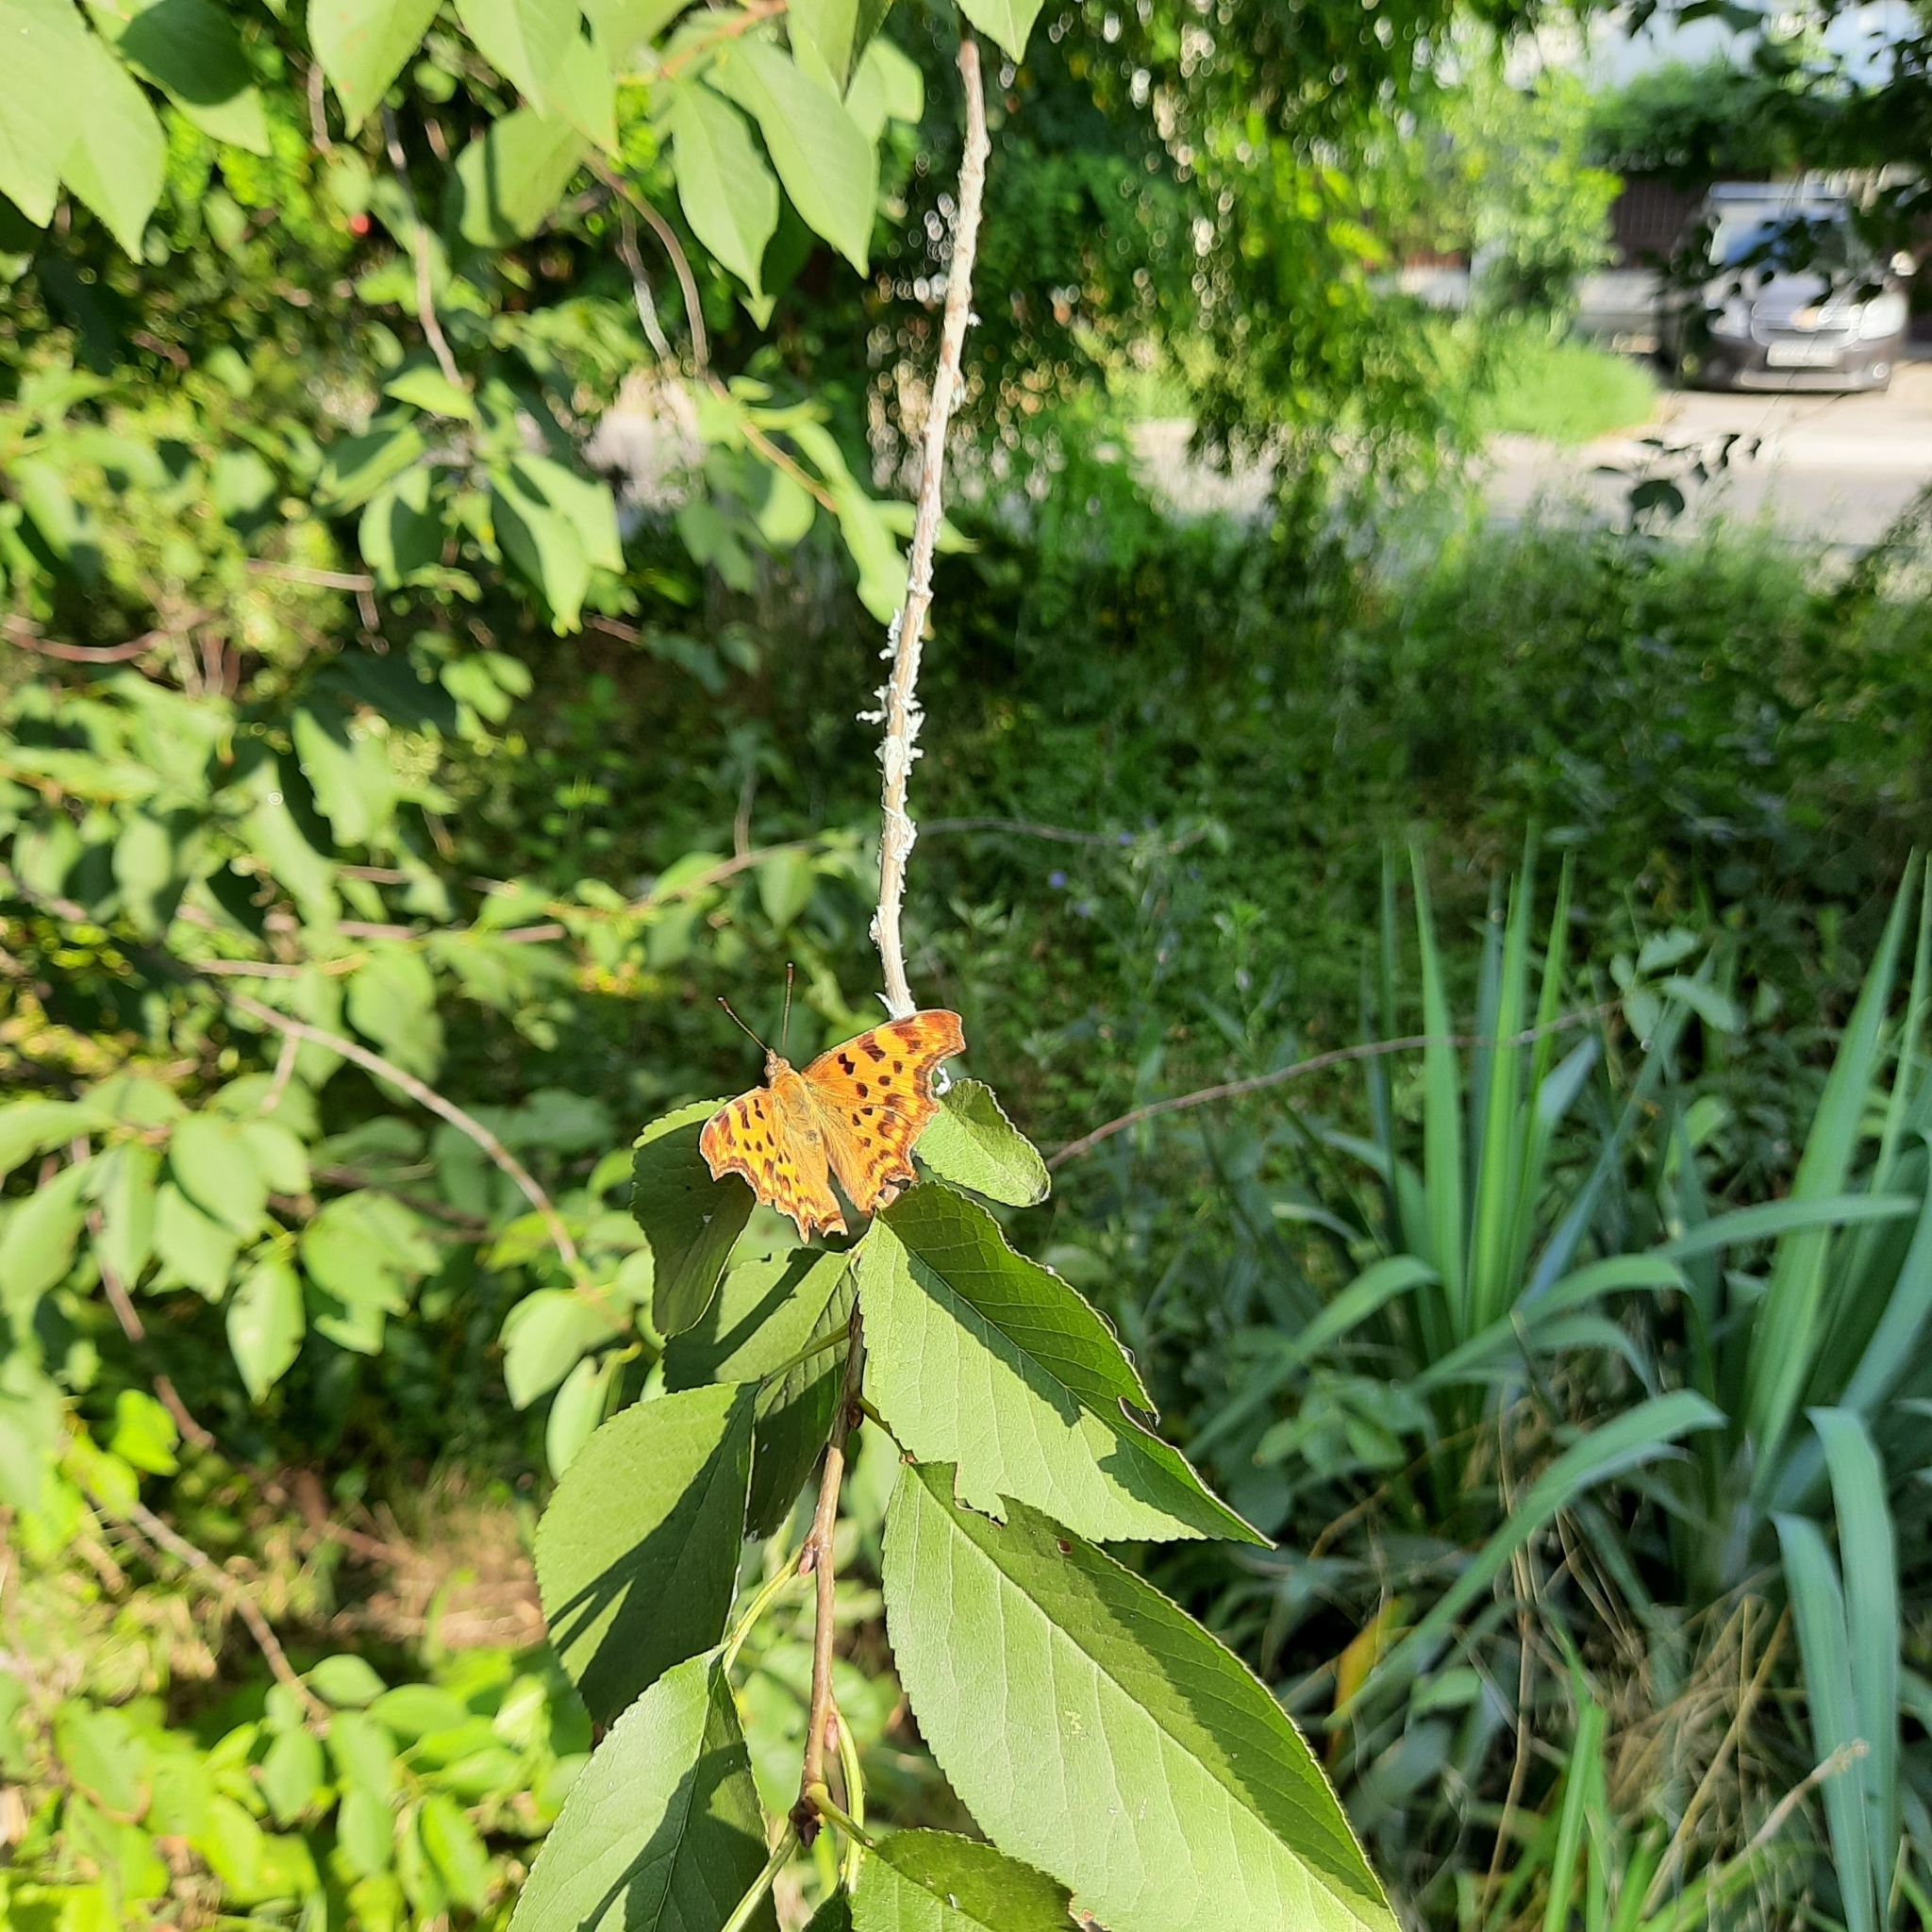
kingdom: Animalia
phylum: Arthropoda
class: Insecta
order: Lepidoptera
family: Nymphalidae
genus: Polygonia
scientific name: Polygonia c-album
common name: Comma
